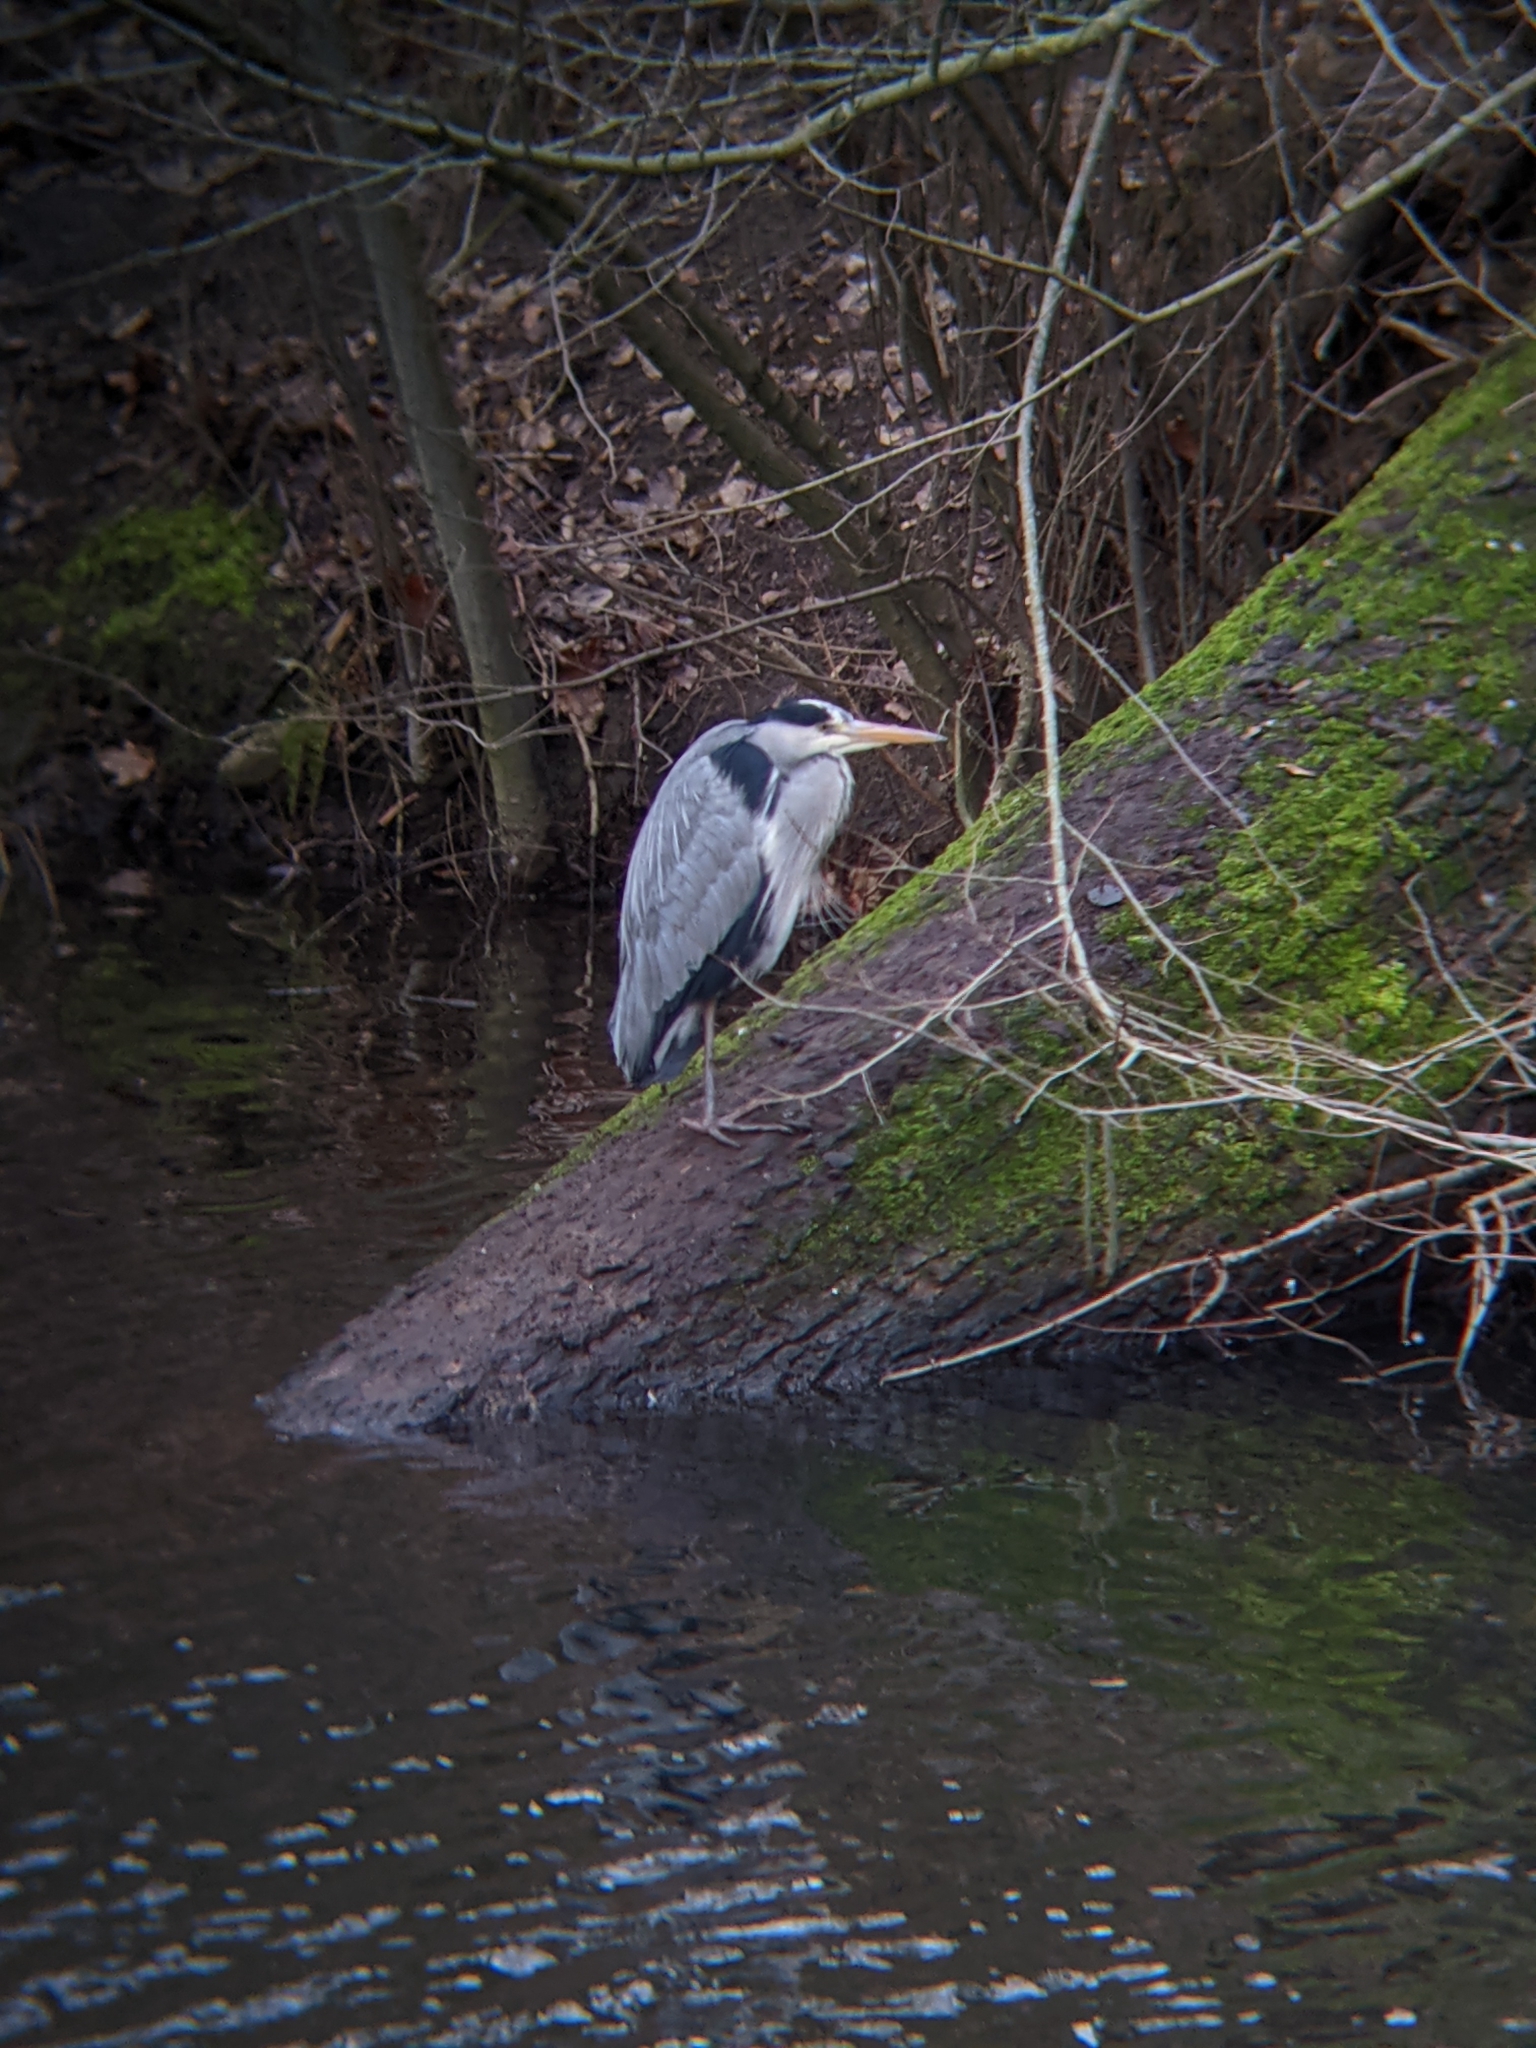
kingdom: Animalia
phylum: Chordata
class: Aves
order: Pelecaniformes
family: Ardeidae
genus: Ardea
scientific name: Ardea cinerea
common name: Grey heron
